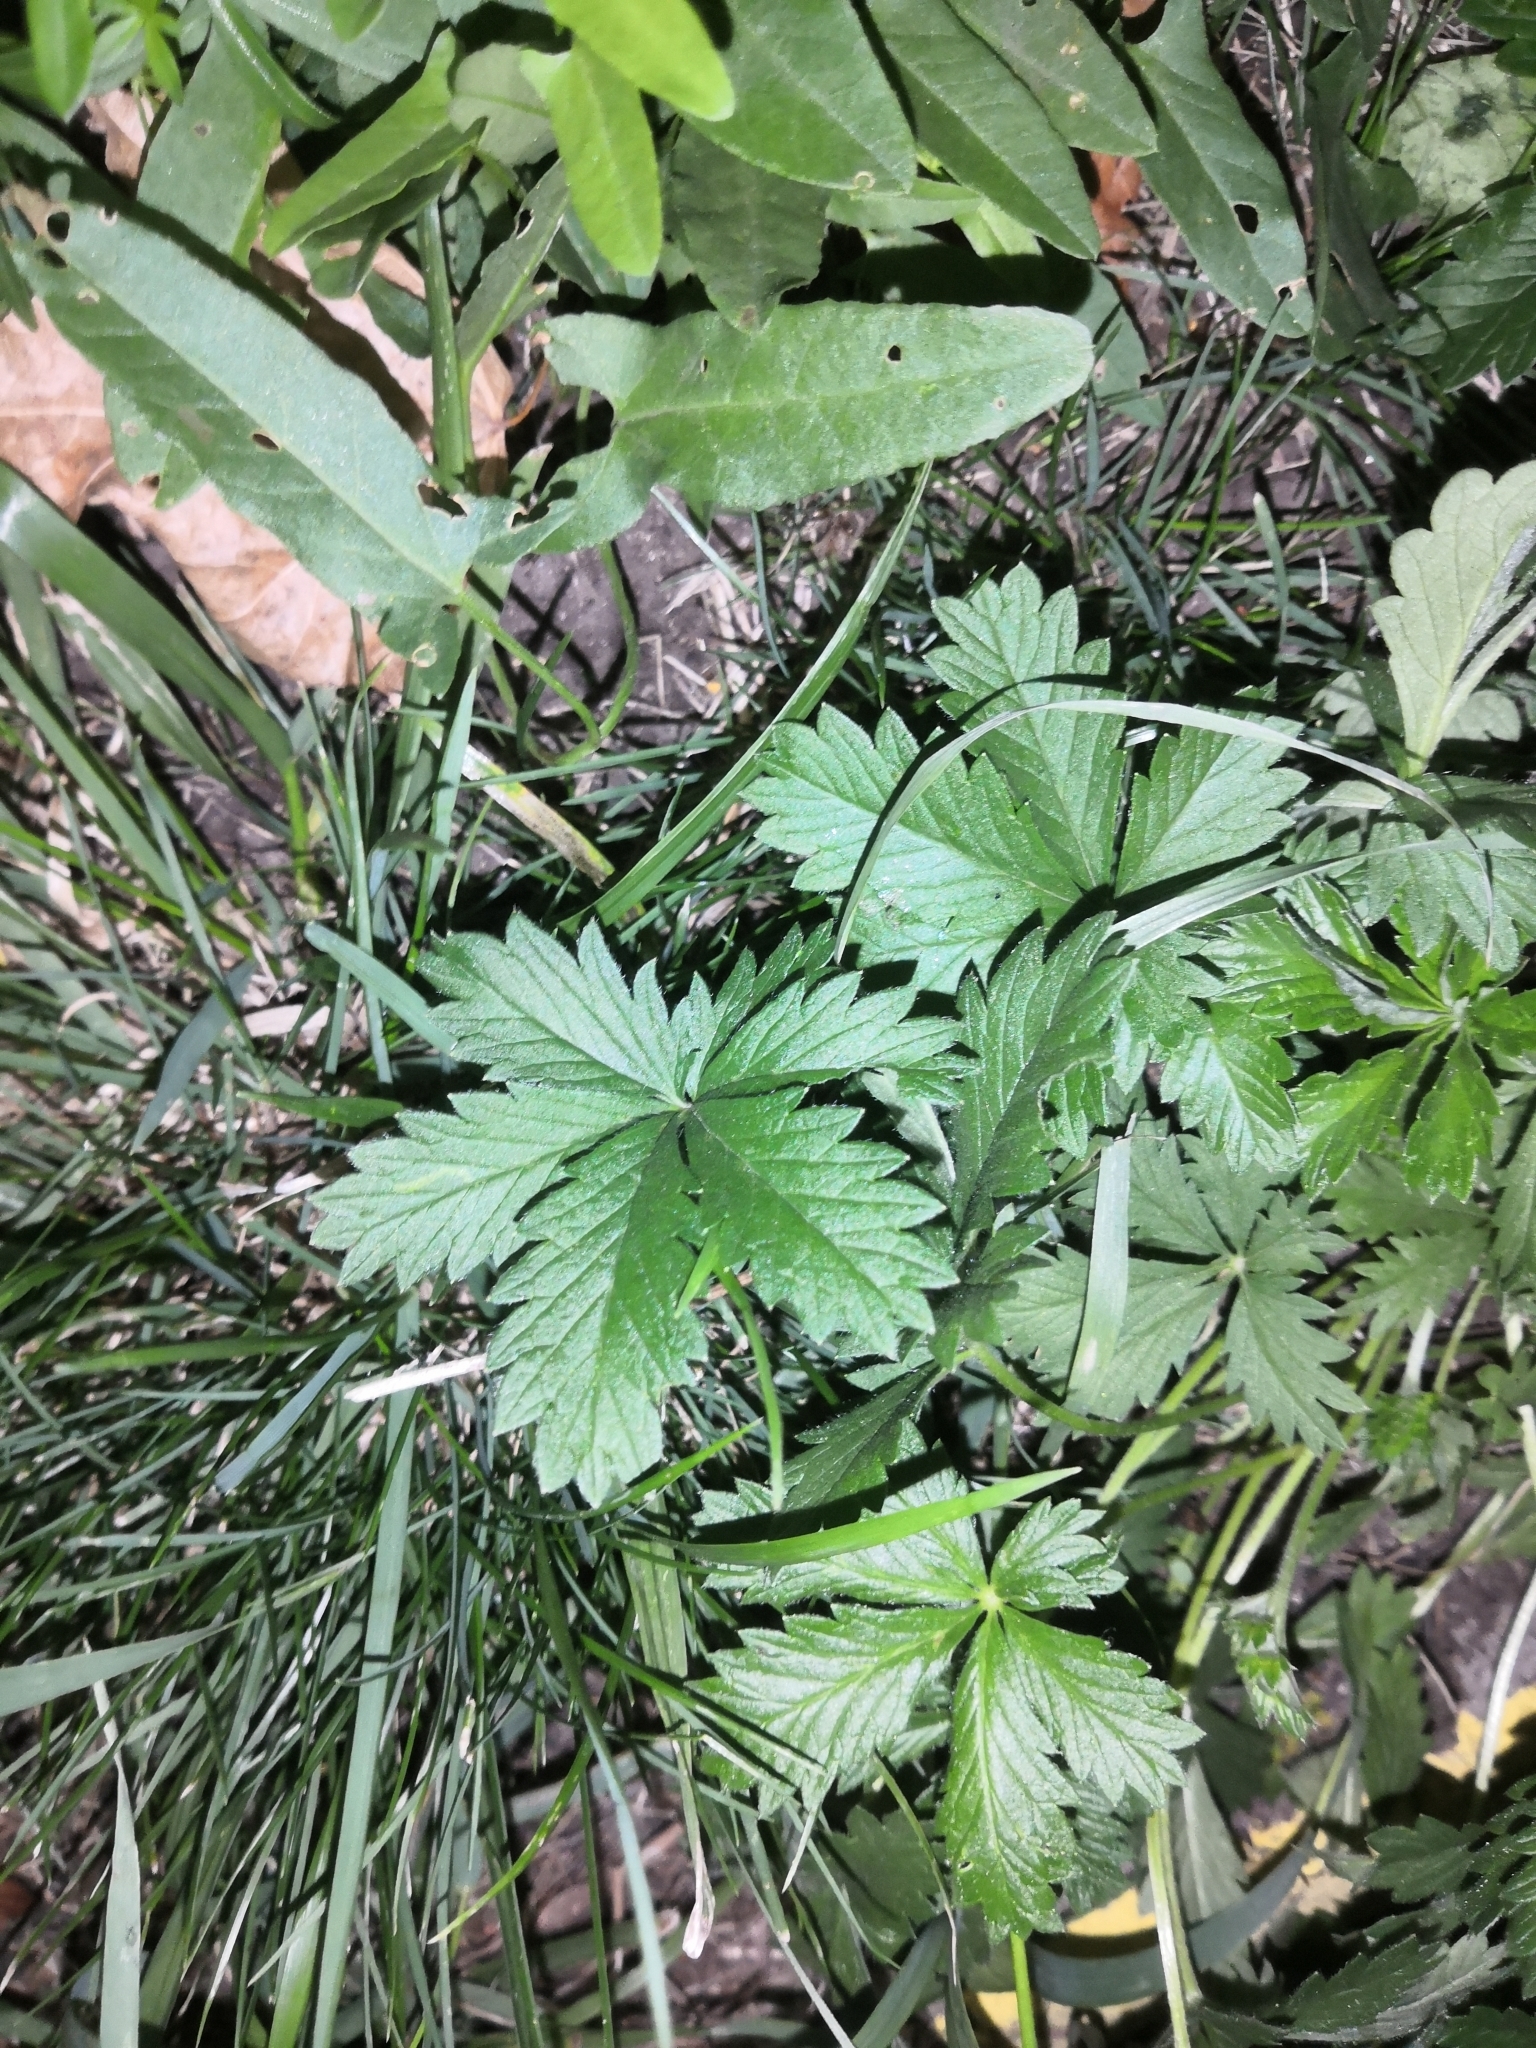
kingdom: Plantae
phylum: Tracheophyta
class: Magnoliopsida
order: Rosales
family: Rosaceae
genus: Potentilla
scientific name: Potentilla intermedia
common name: Downy cinquefoil
